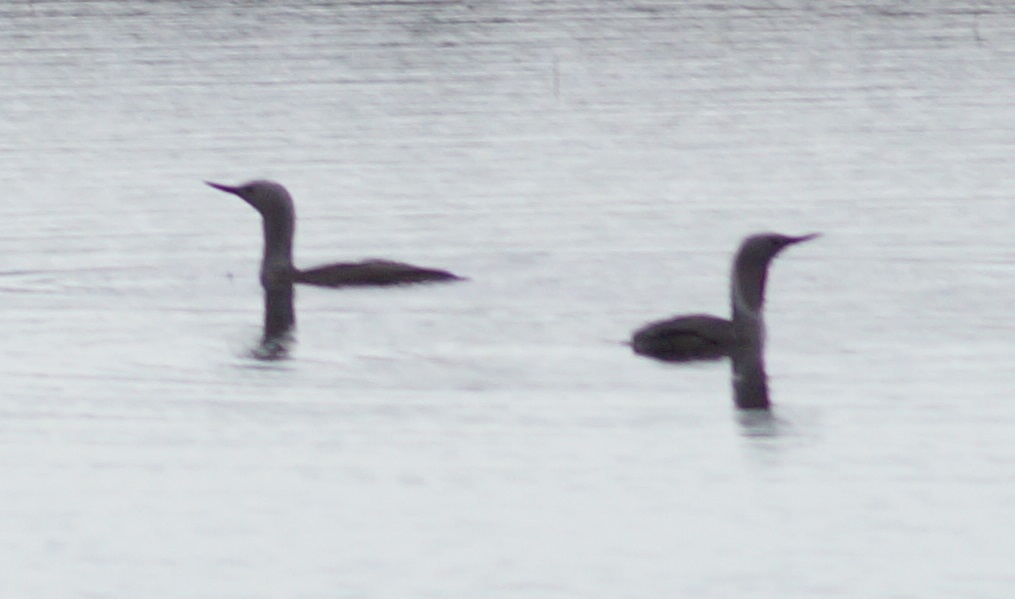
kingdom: Animalia
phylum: Chordata
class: Aves
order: Gaviiformes
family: Gaviidae
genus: Gavia
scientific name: Gavia stellata
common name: Red-throated loon
